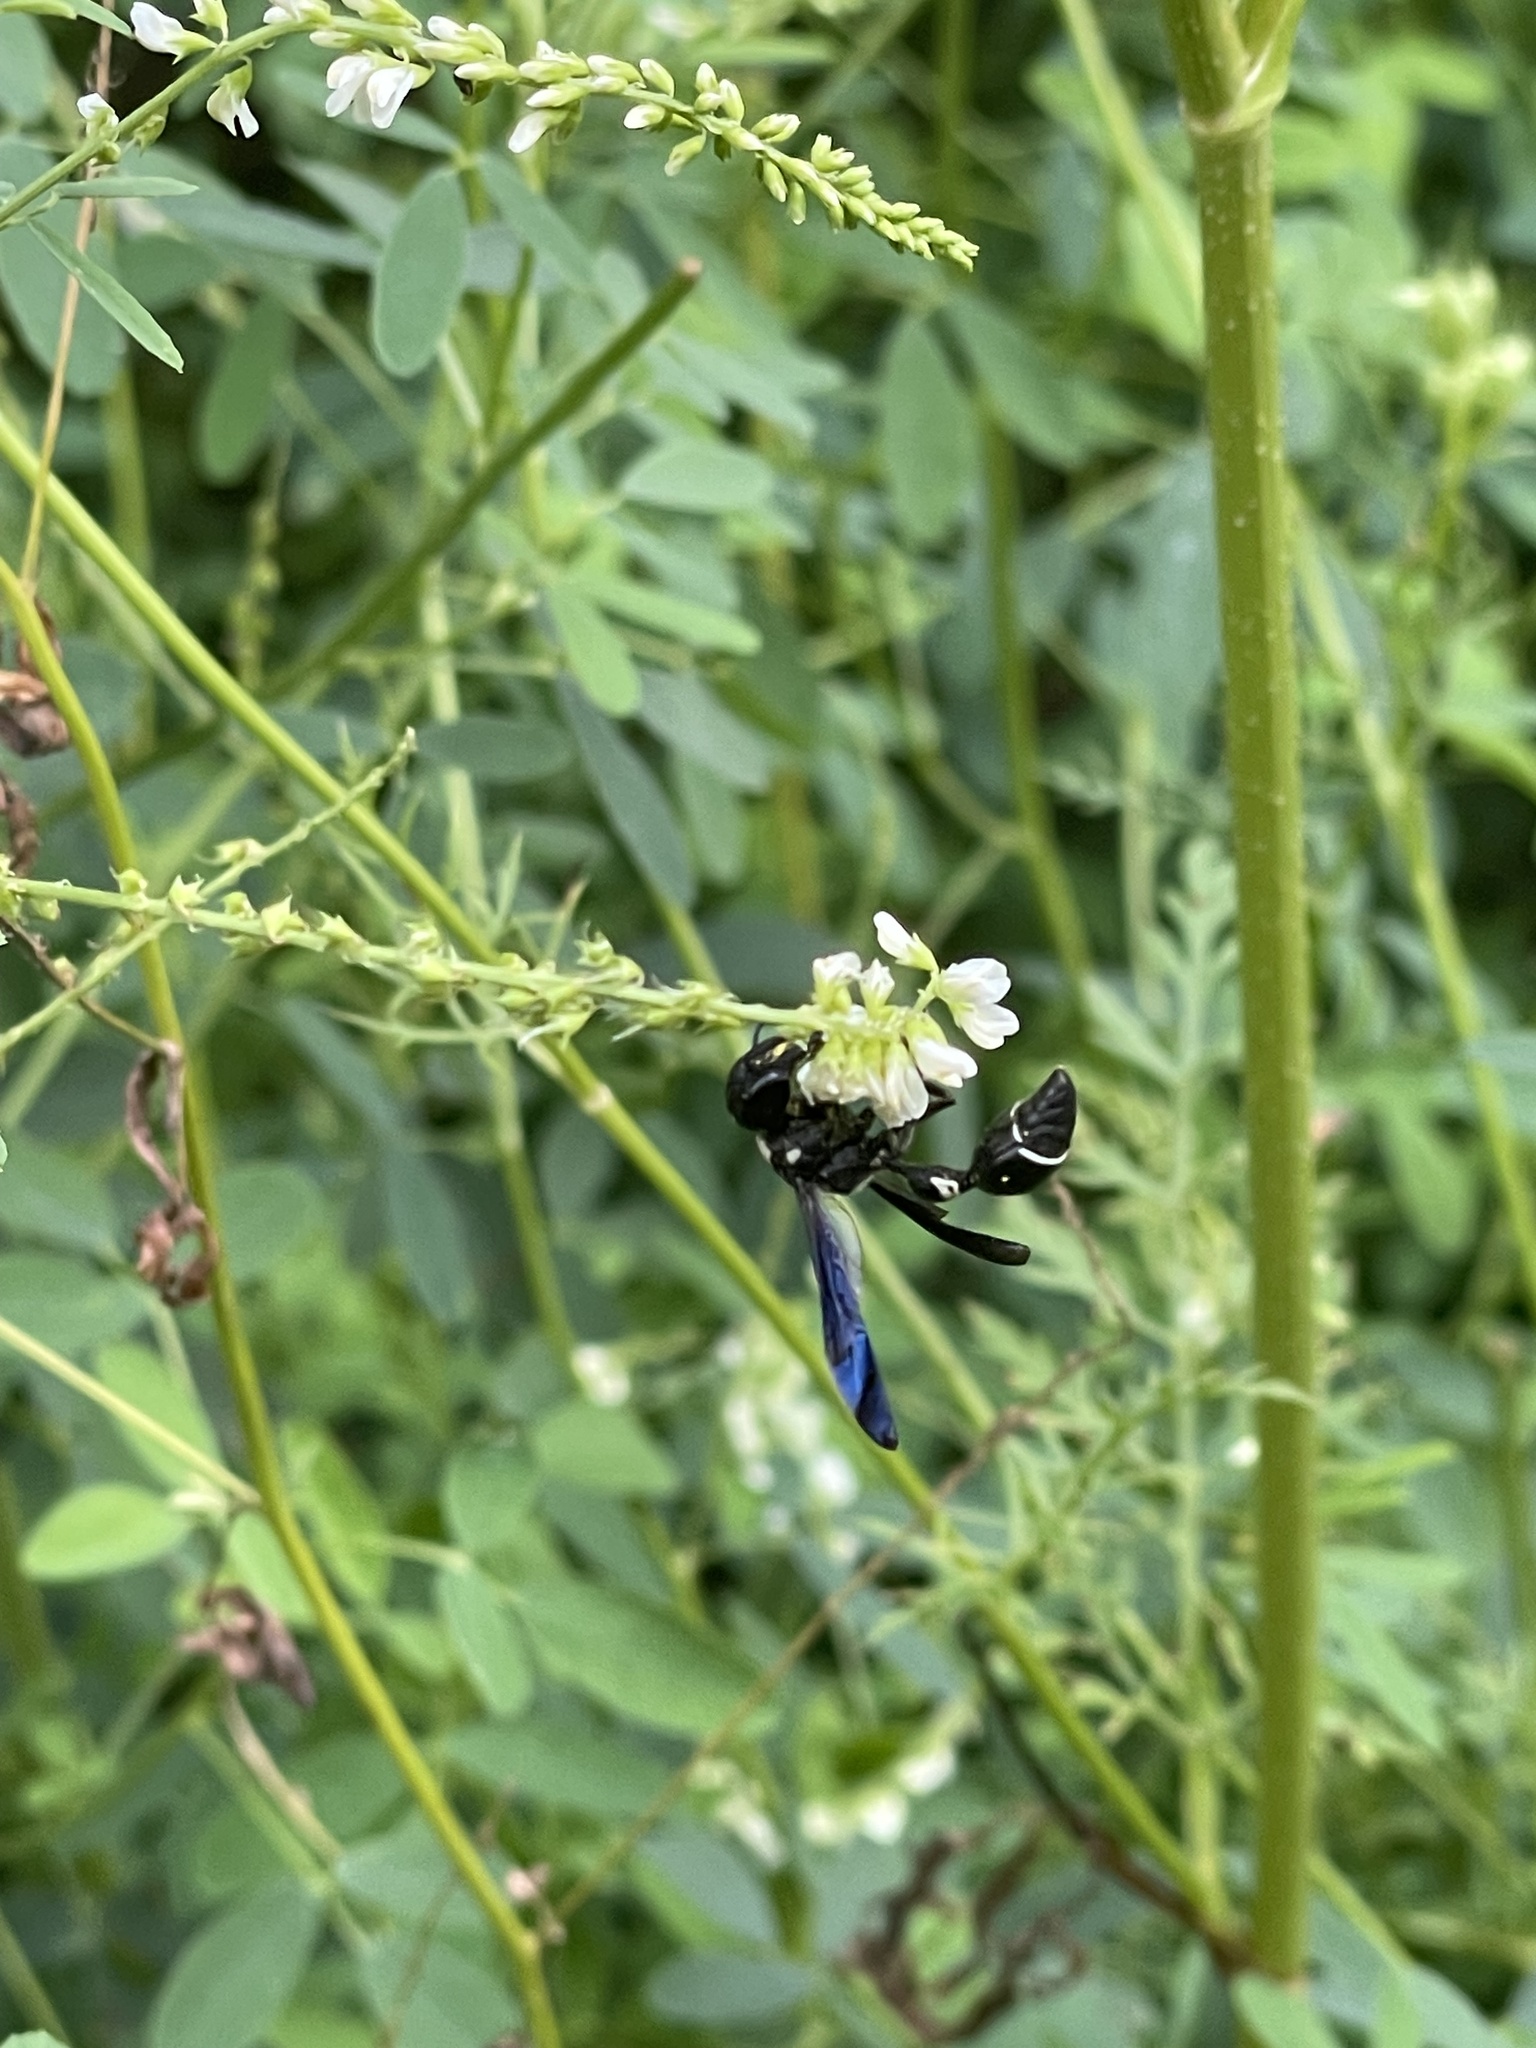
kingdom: Animalia
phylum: Arthropoda
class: Insecta
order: Hymenoptera
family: Eumenidae
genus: Zethus
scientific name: Zethus spinipes
